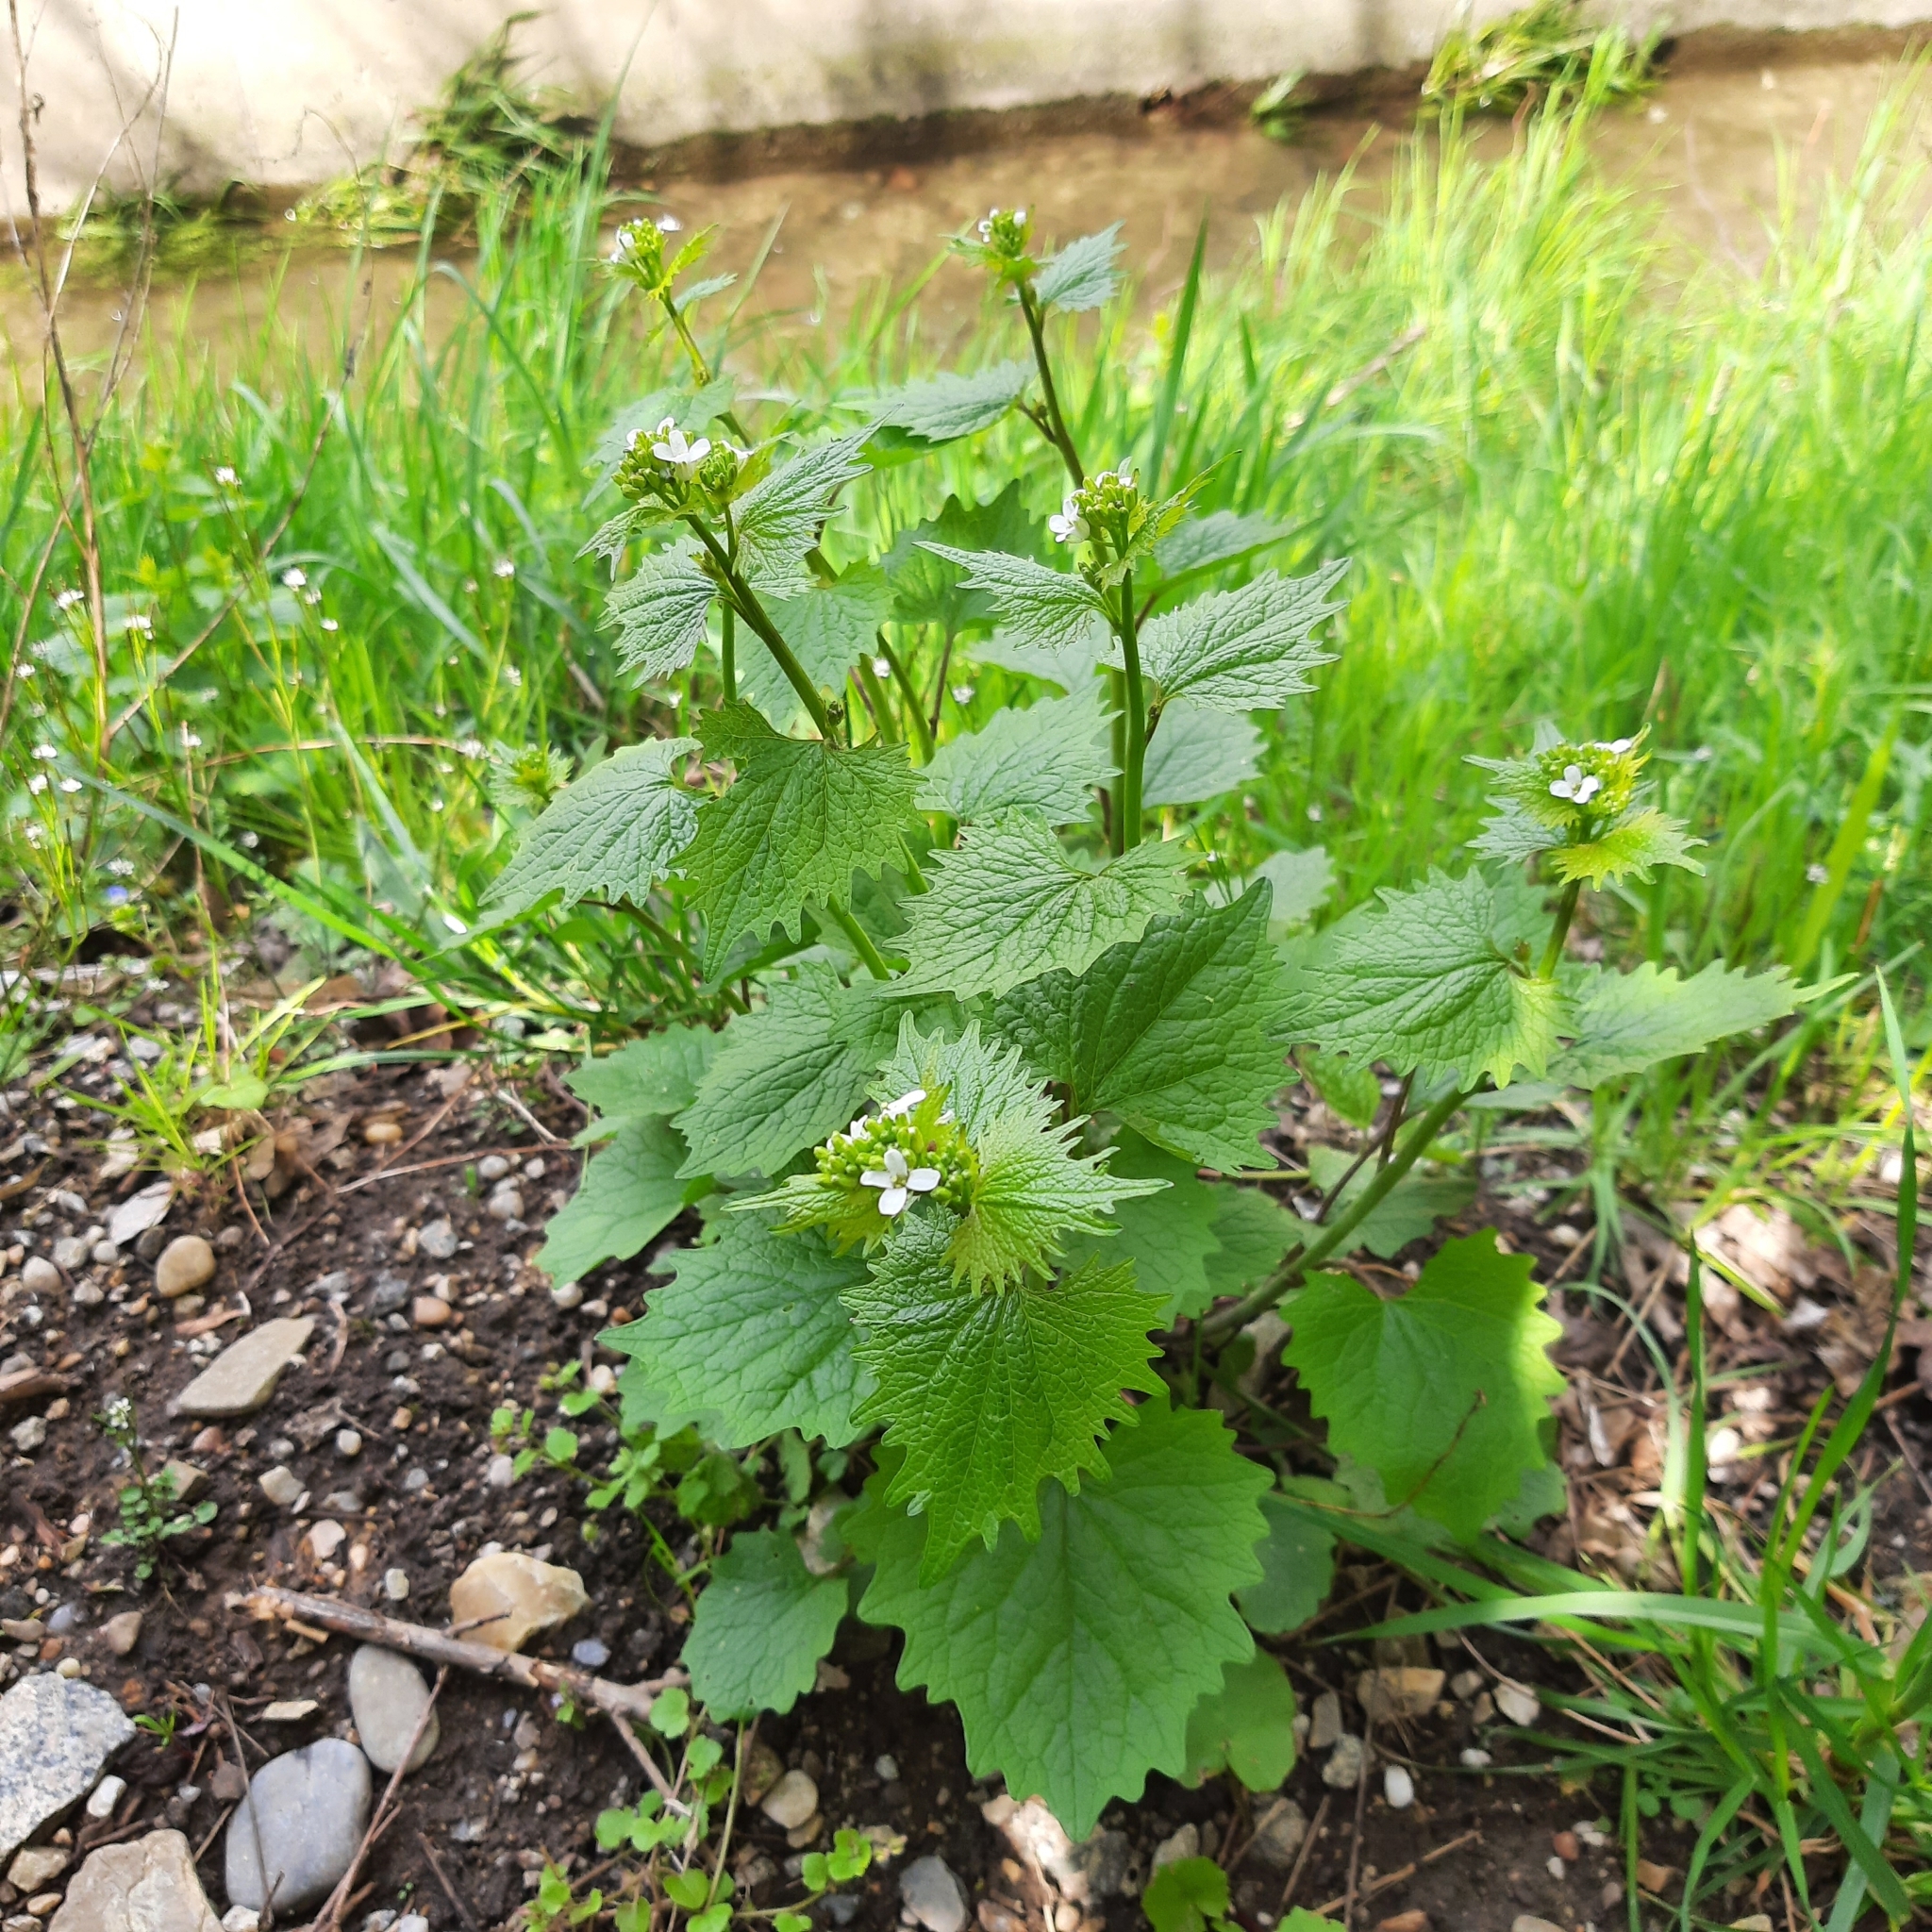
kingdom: Plantae
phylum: Tracheophyta
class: Magnoliopsida
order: Brassicales
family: Brassicaceae
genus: Alliaria
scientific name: Alliaria petiolata
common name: Garlic mustard
